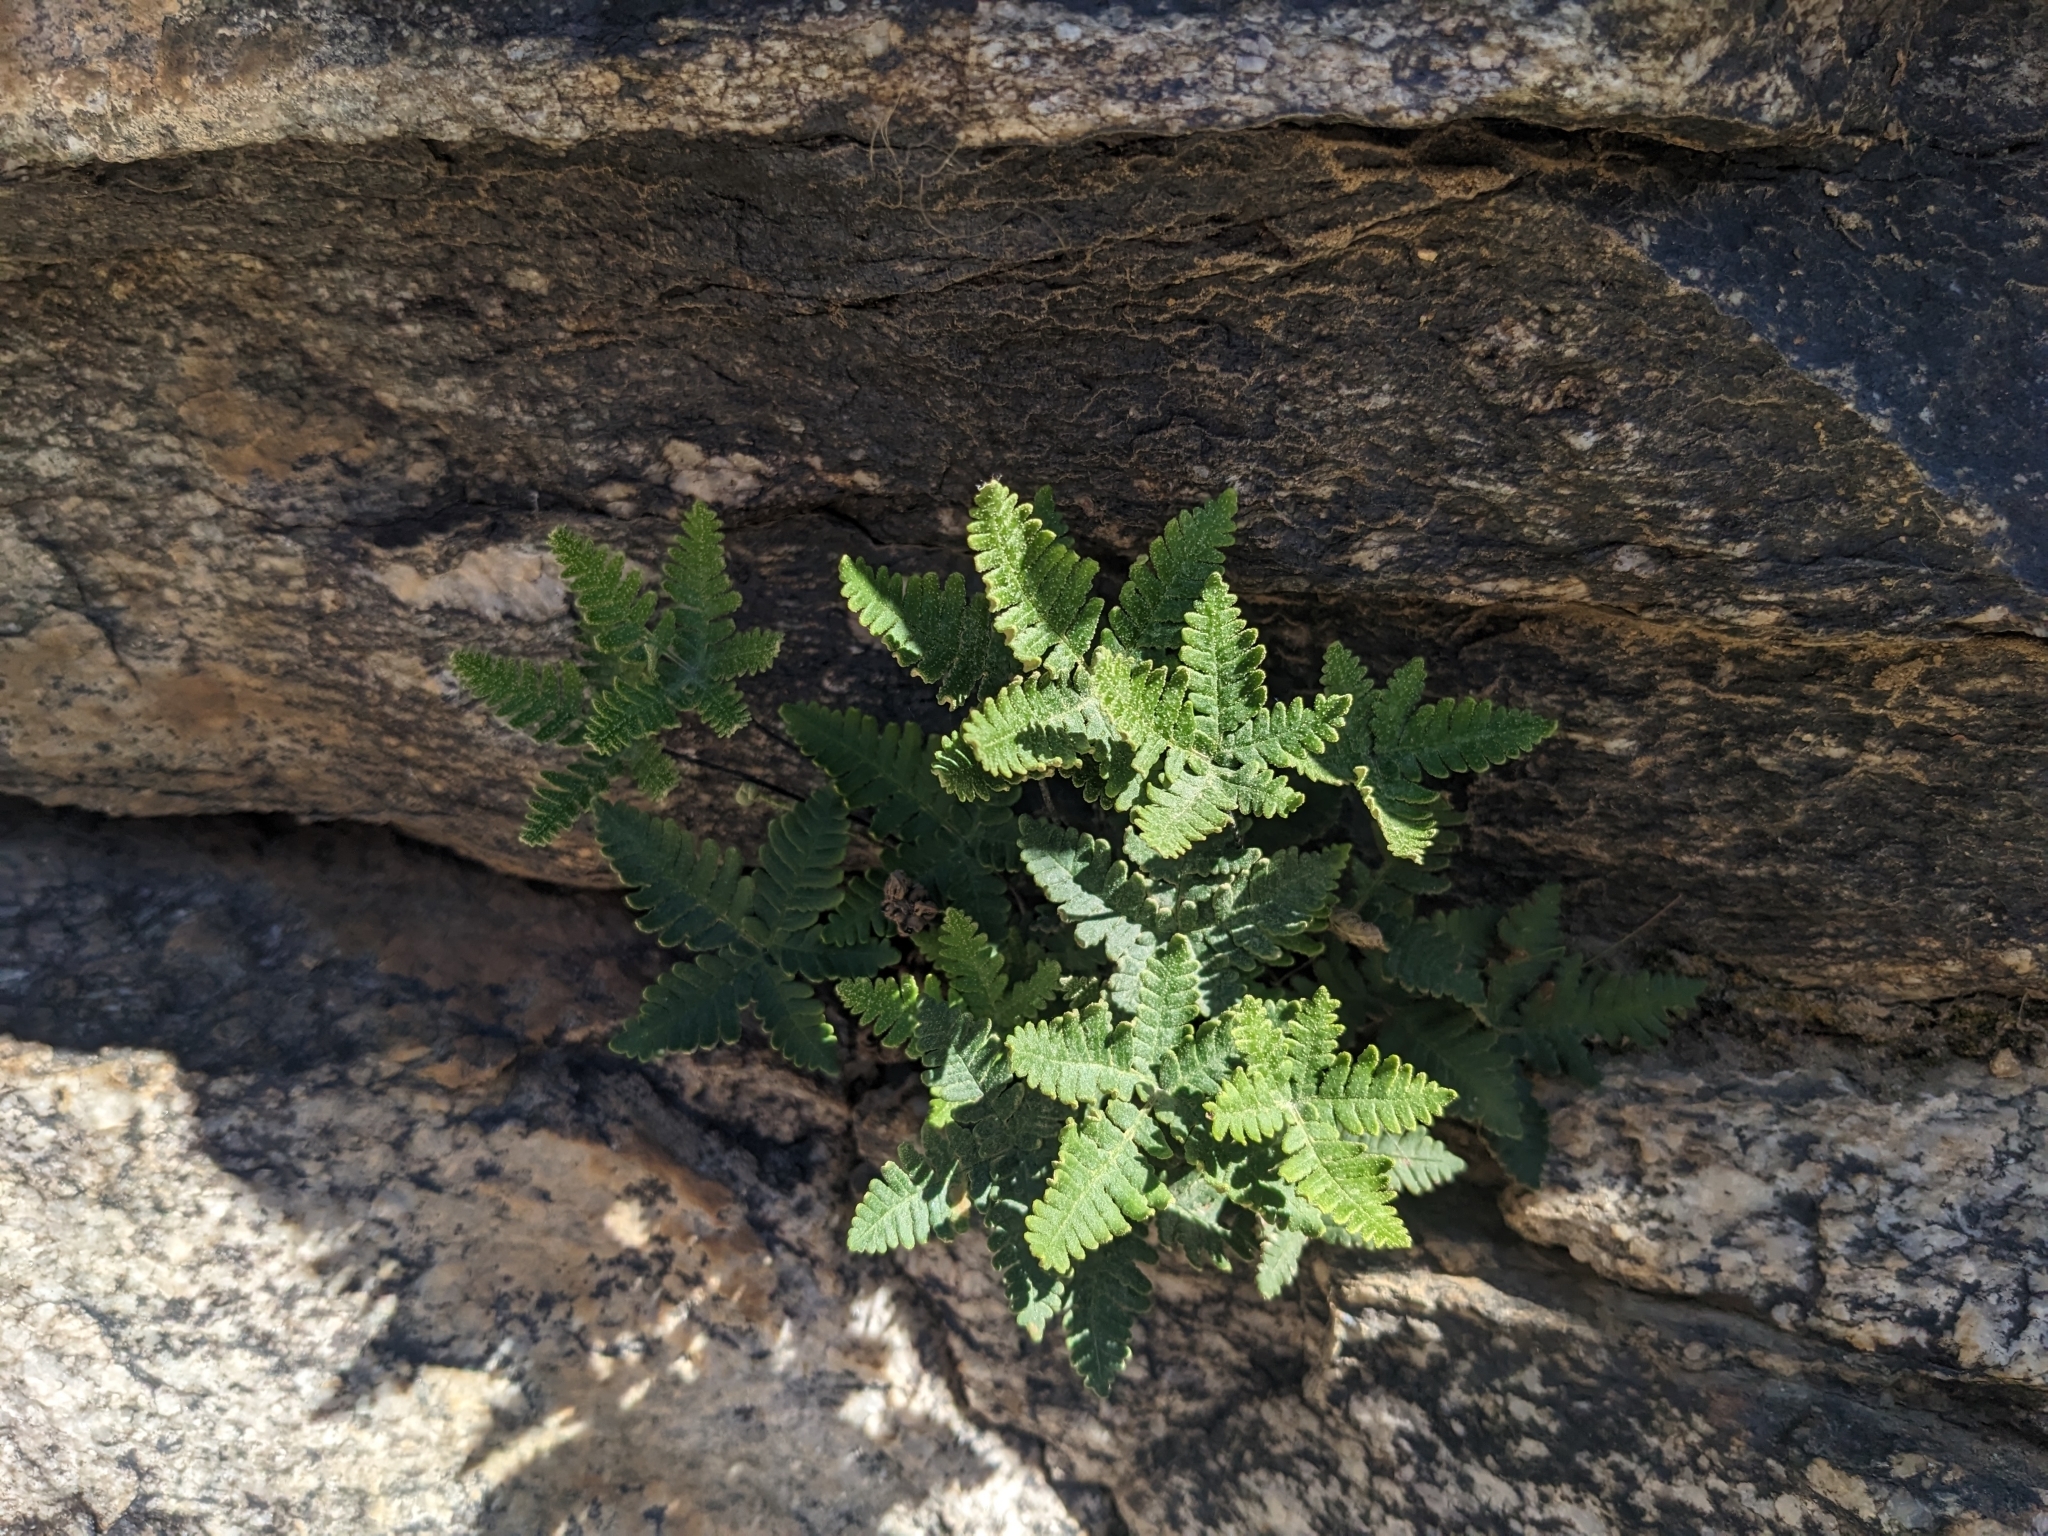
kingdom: Plantae
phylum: Tracheophyta
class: Polypodiopsida
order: Polypodiales
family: Pteridaceae
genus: Notholaena
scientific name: Notholaena standleyi
